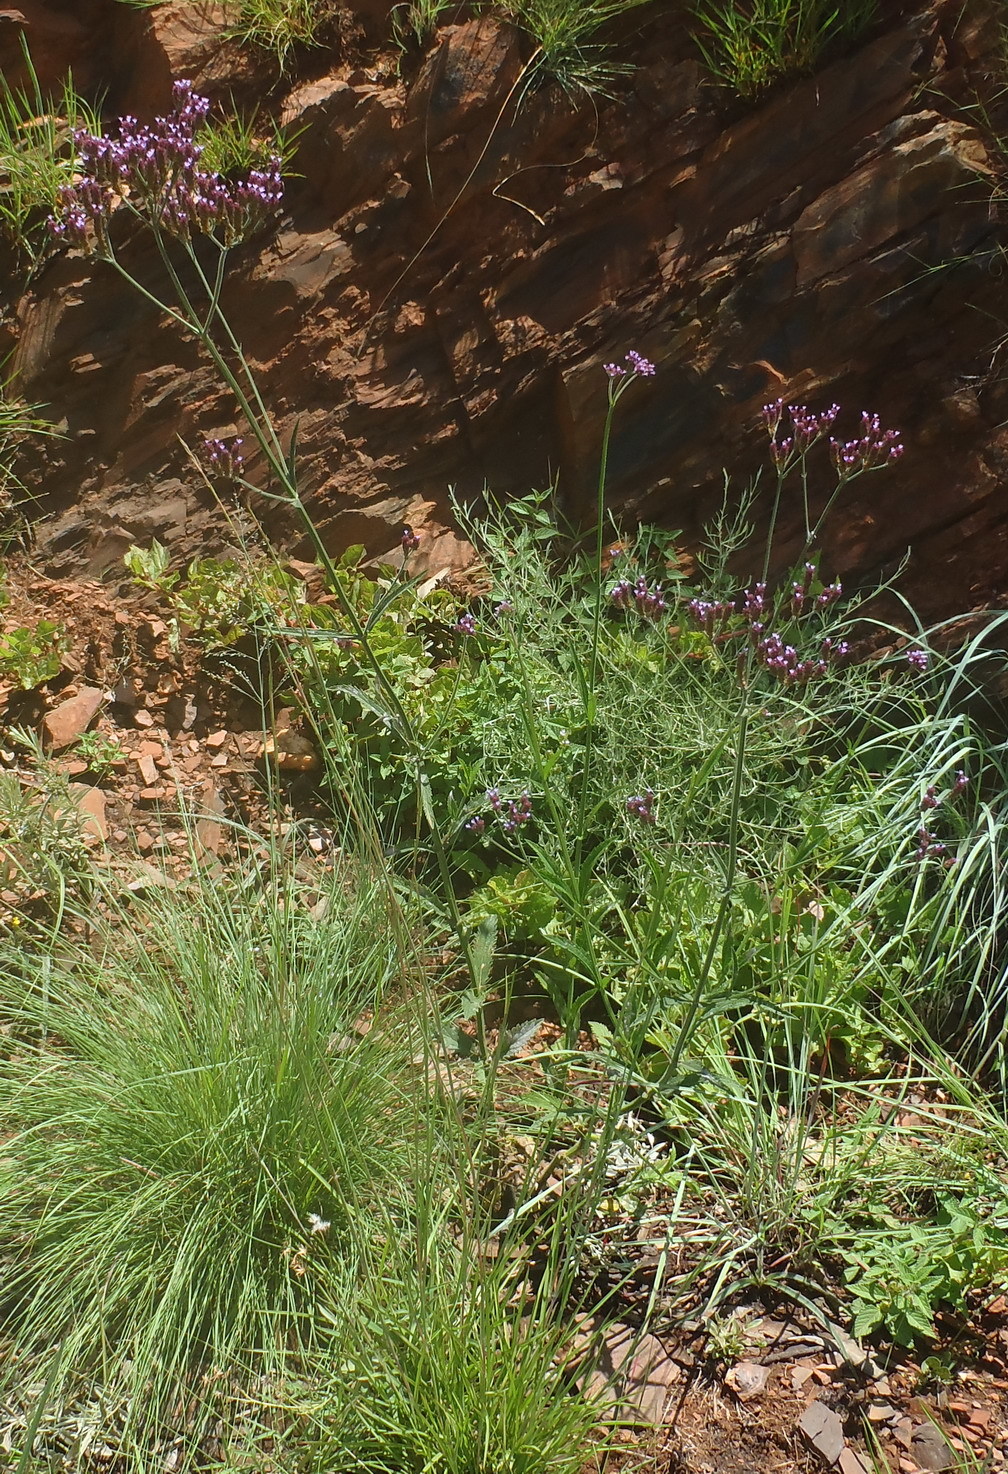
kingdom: Plantae
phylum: Tracheophyta
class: Magnoliopsida
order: Lamiales
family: Verbenaceae
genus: Verbena
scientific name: Verbena bonariensis
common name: Purpletop vervain
